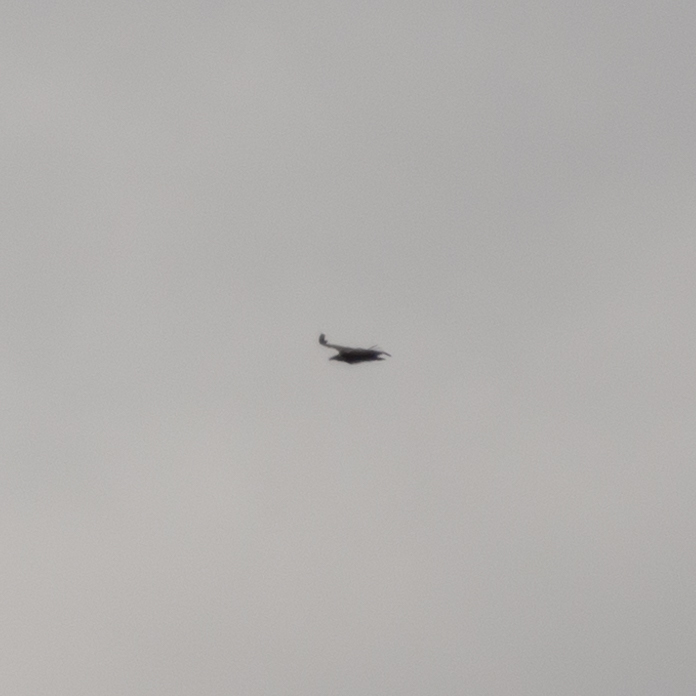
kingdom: Animalia
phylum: Chordata
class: Aves
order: Accipitriformes
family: Accipitridae
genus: Gyps
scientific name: Gyps fulvus
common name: Griffon vulture
